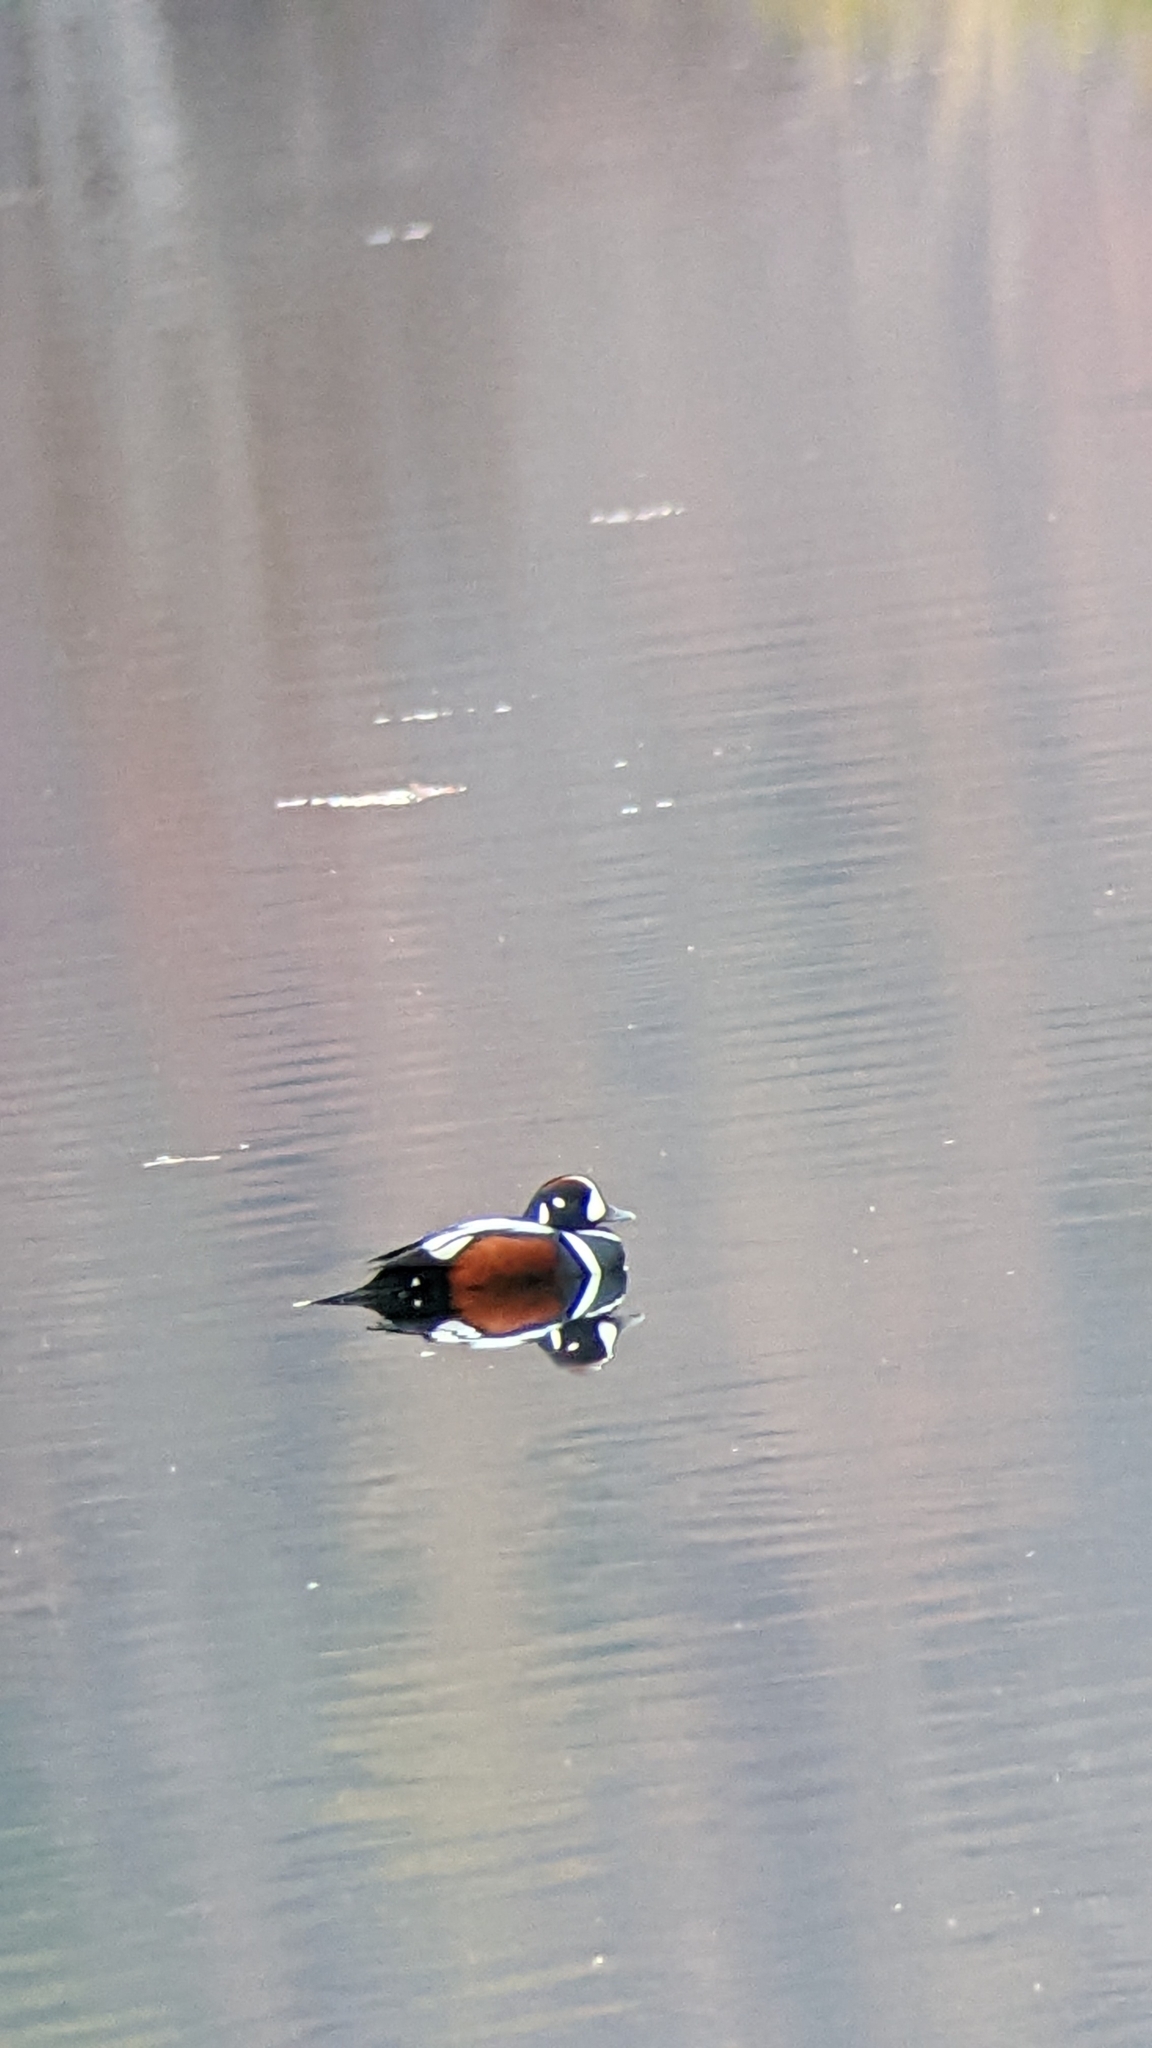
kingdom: Animalia
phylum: Chordata
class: Aves
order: Anseriformes
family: Anatidae
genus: Histrionicus
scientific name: Histrionicus histrionicus
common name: Harlequin duck
